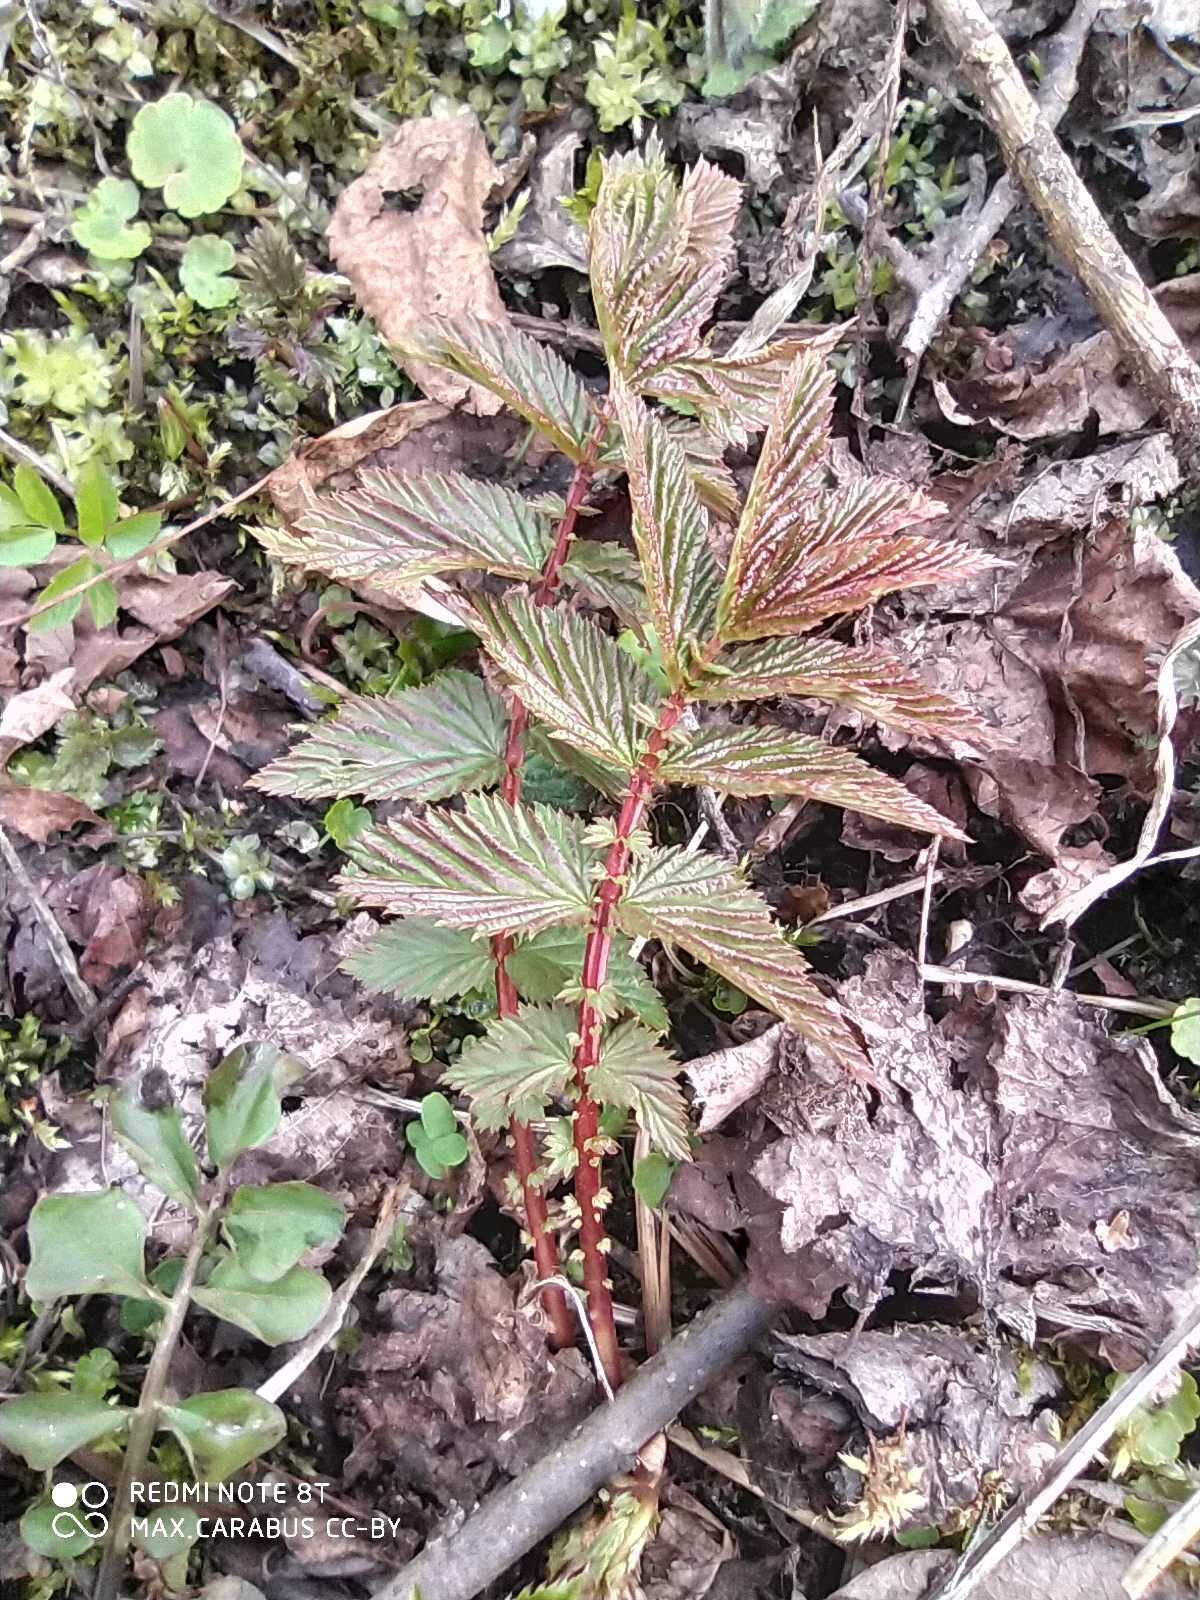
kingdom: Plantae
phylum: Tracheophyta
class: Magnoliopsida
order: Rosales
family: Rosaceae
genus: Filipendula
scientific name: Filipendula ulmaria
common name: Meadowsweet
